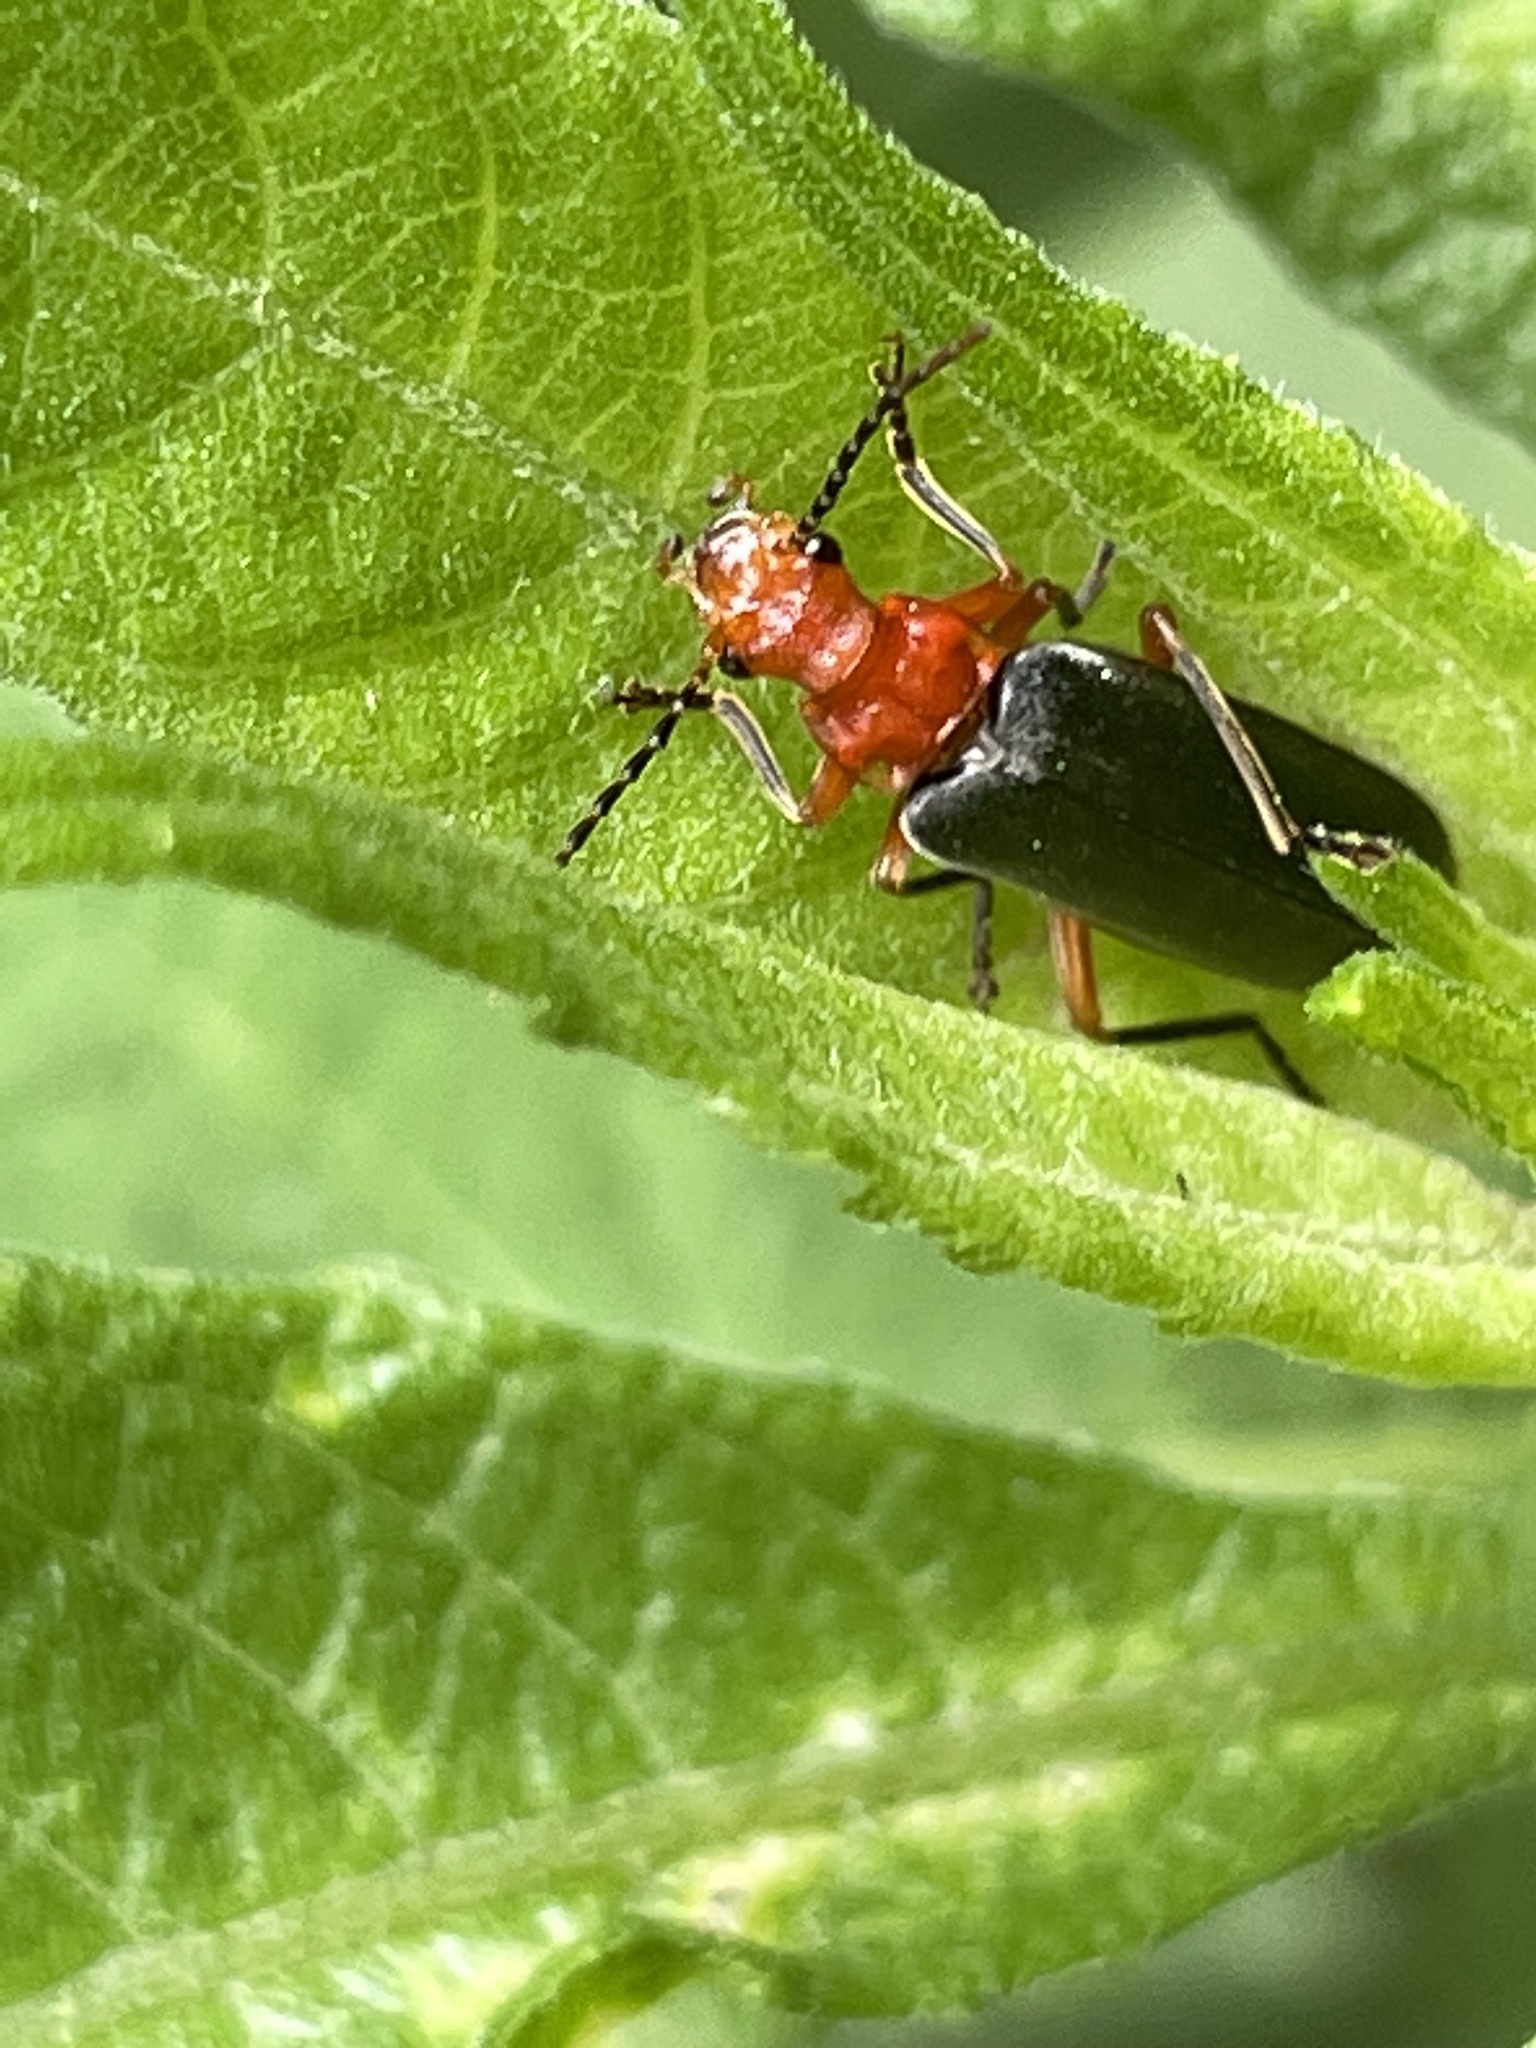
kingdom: Animalia
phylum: Arthropoda
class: Insecta
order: Coleoptera
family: Cantharidae
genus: Podabrus
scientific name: Podabrus tomentosus
